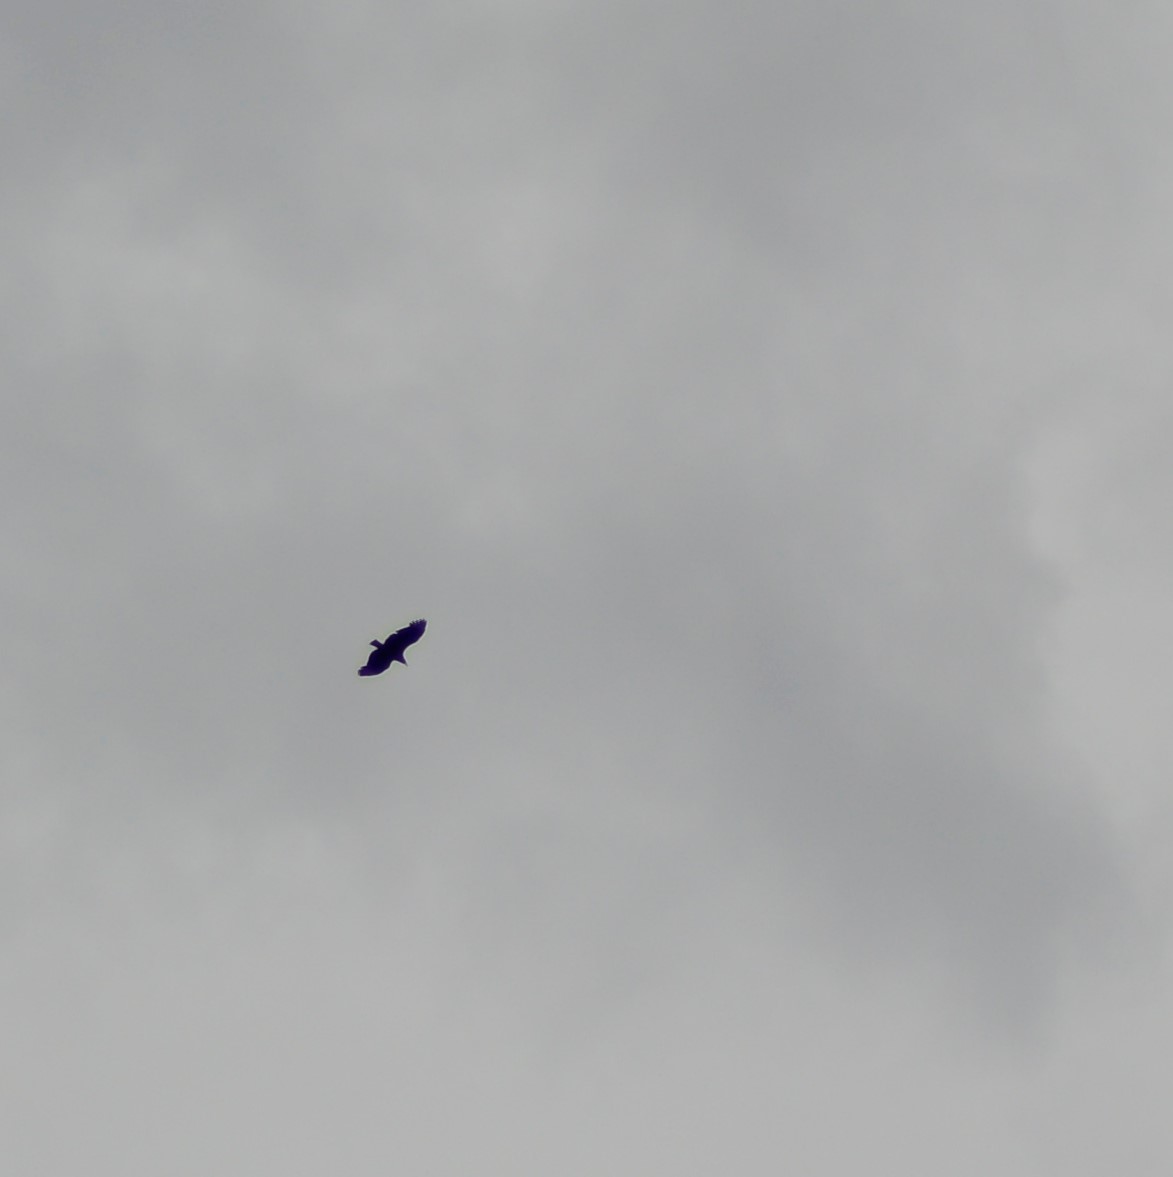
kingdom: Animalia
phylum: Chordata
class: Aves
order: Accipitriformes
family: Cathartidae
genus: Coragyps
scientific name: Coragyps atratus
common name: Black vulture
